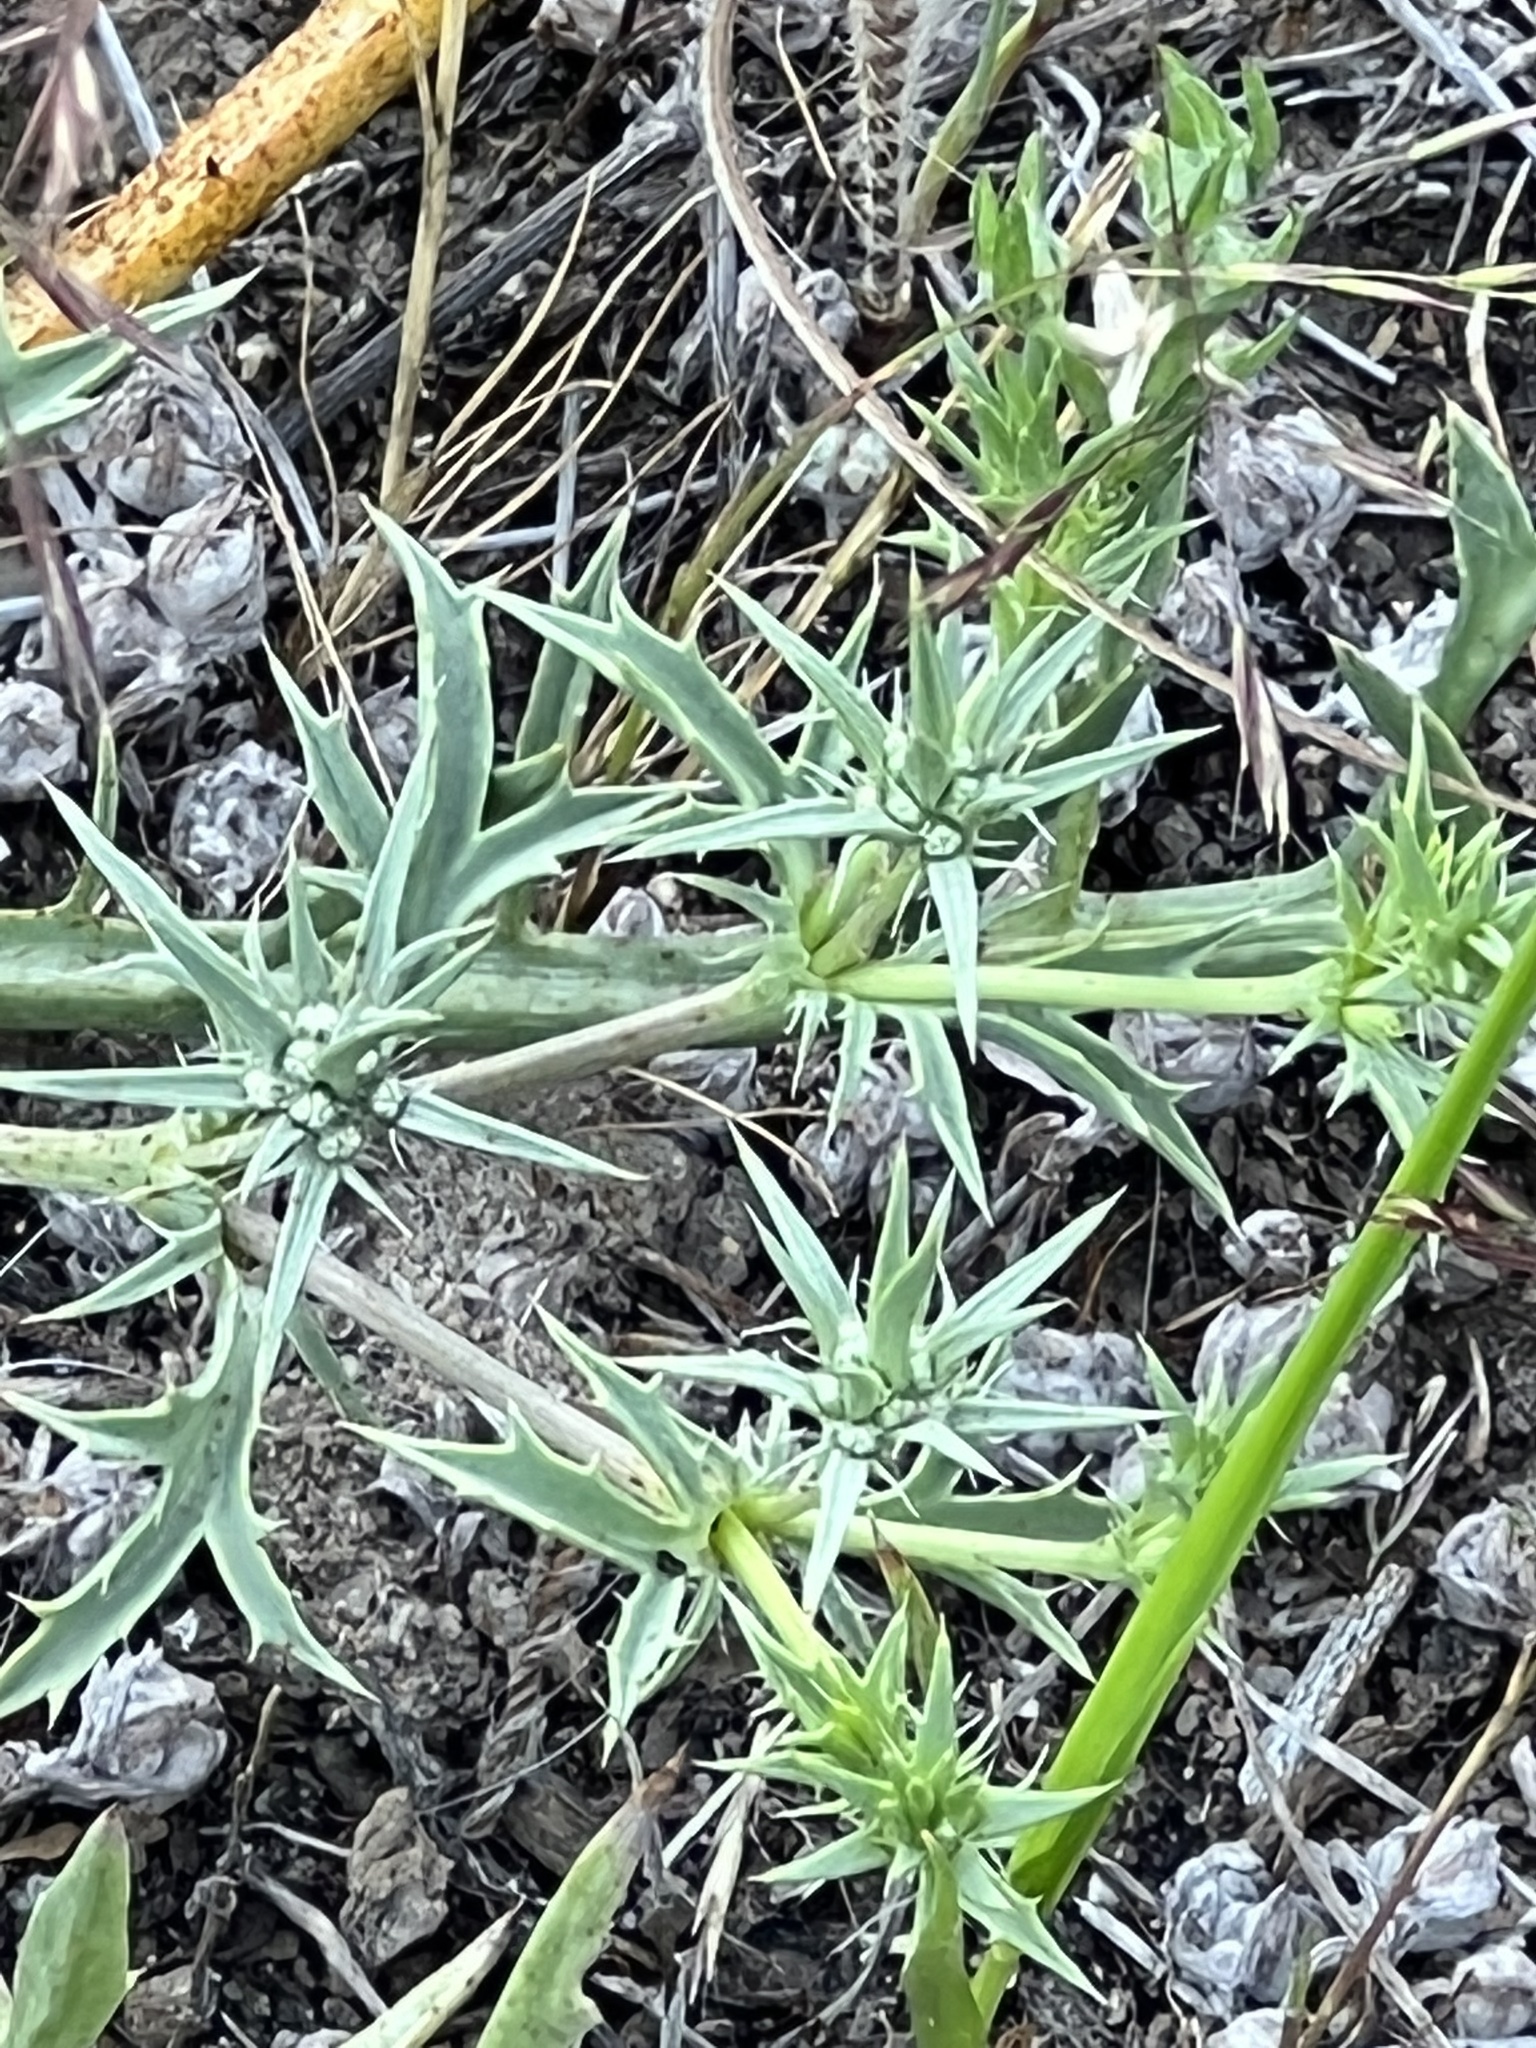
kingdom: Plantae
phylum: Tracheophyta
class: Magnoliopsida
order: Apiales
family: Apiaceae
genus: Eryngium
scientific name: Eryngium aristulatum
